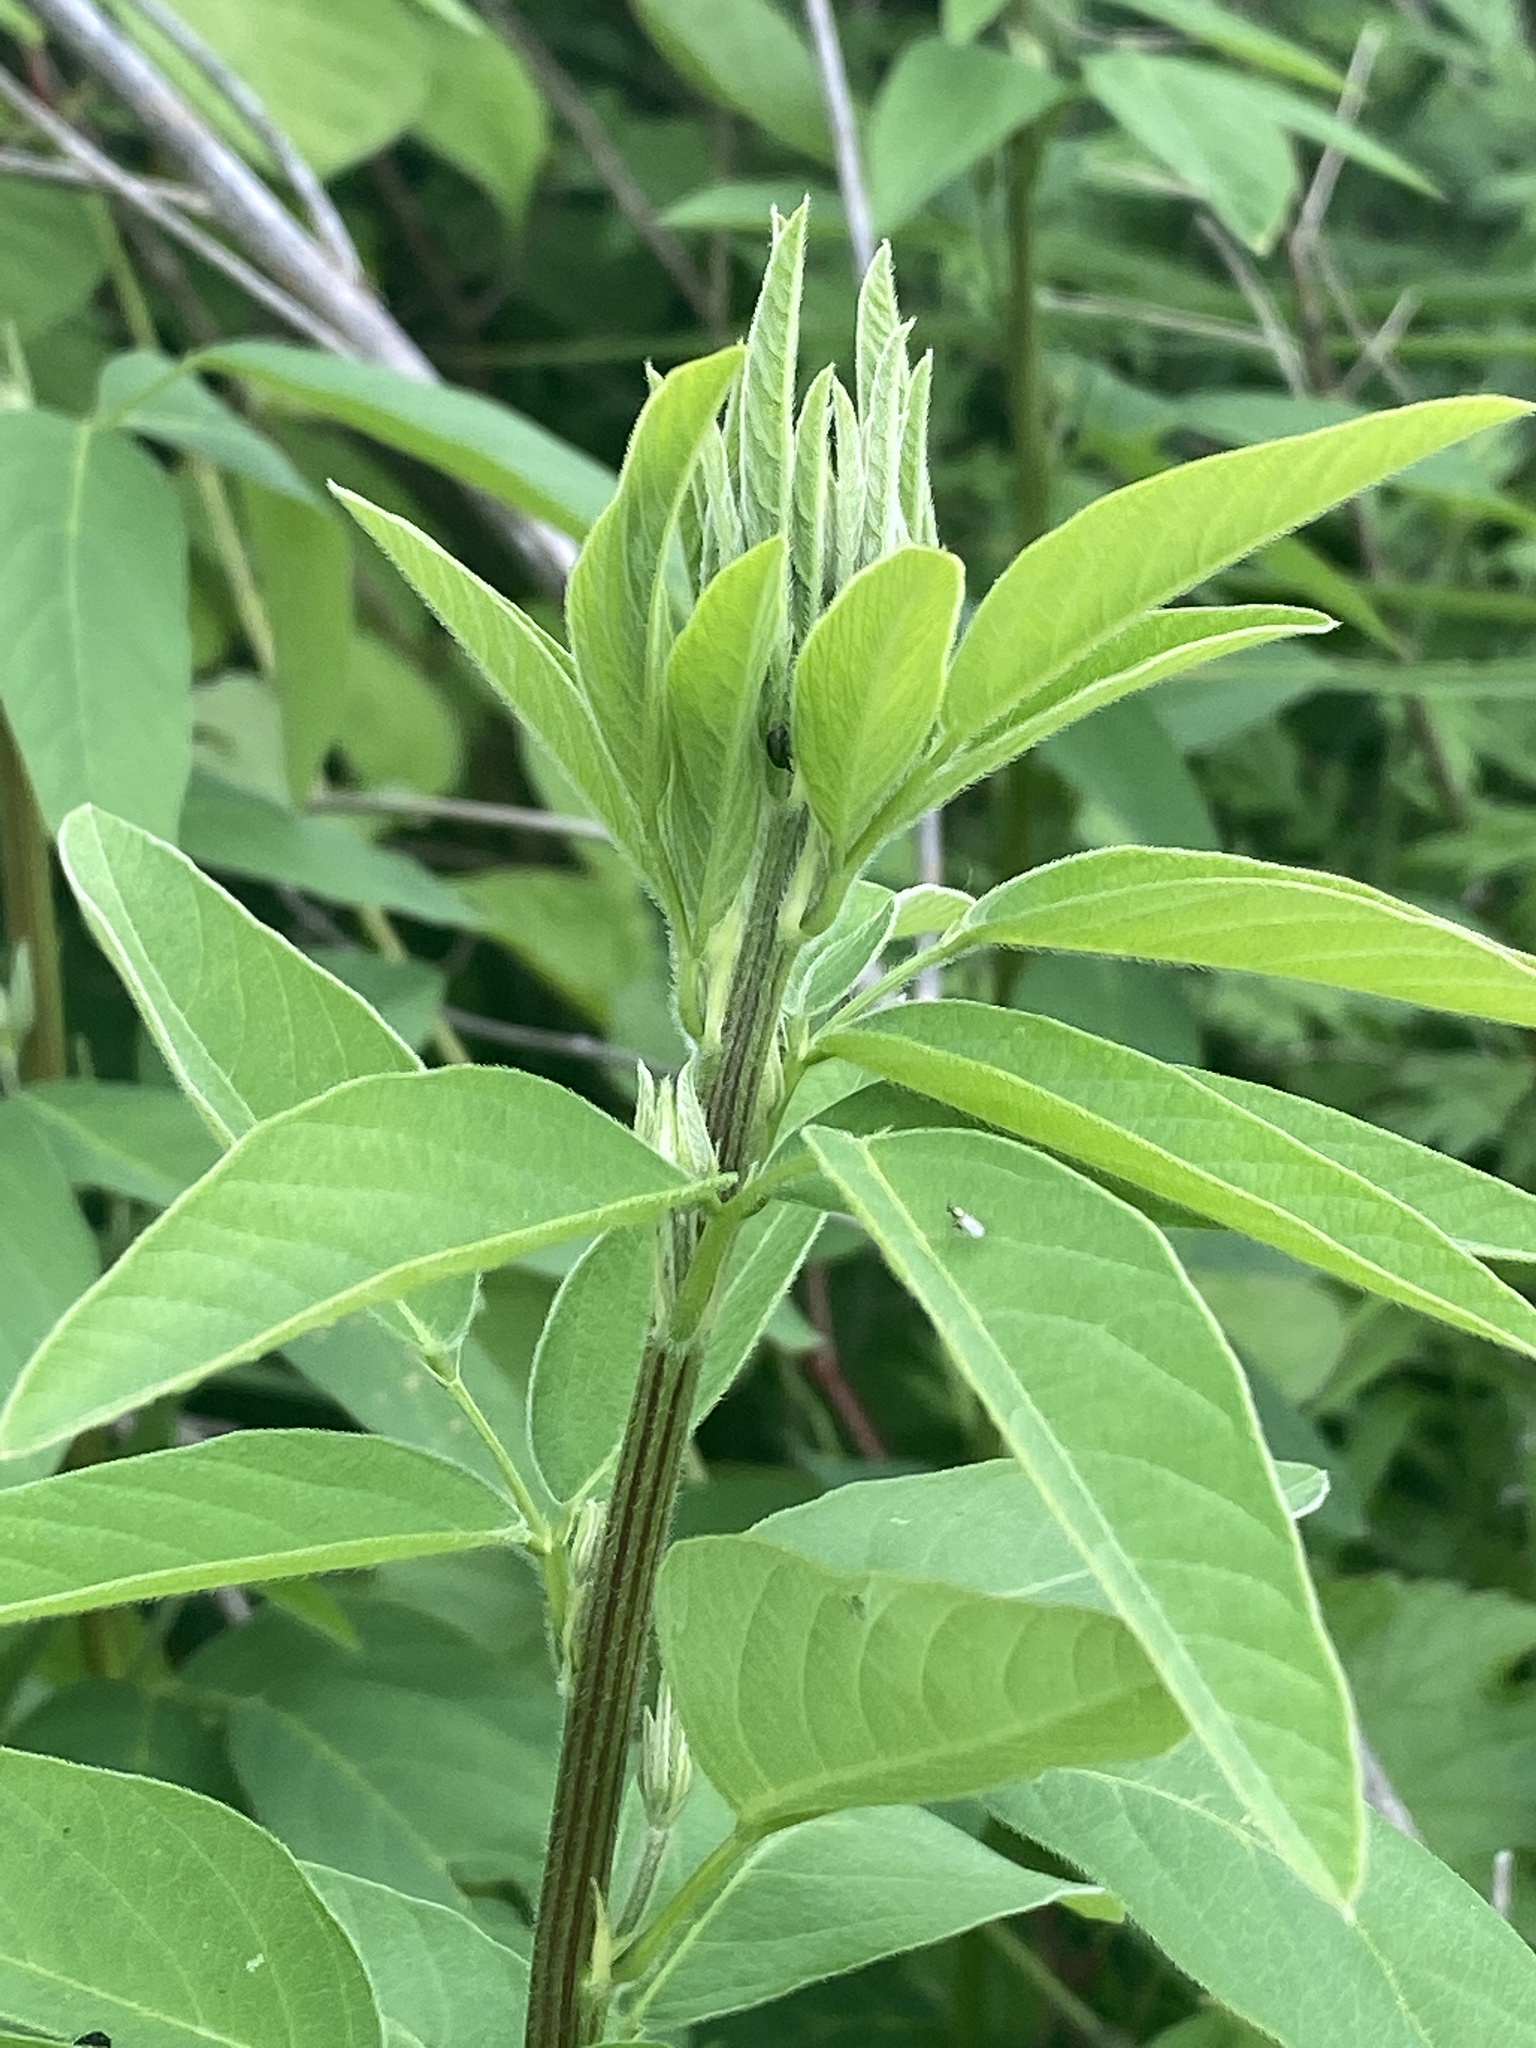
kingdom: Plantae
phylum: Tracheophyta
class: Magnoliopsida
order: Fabales
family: Fabaceae
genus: Desmodium
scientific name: Desmodium canadense
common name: Canada tick-trefoil
